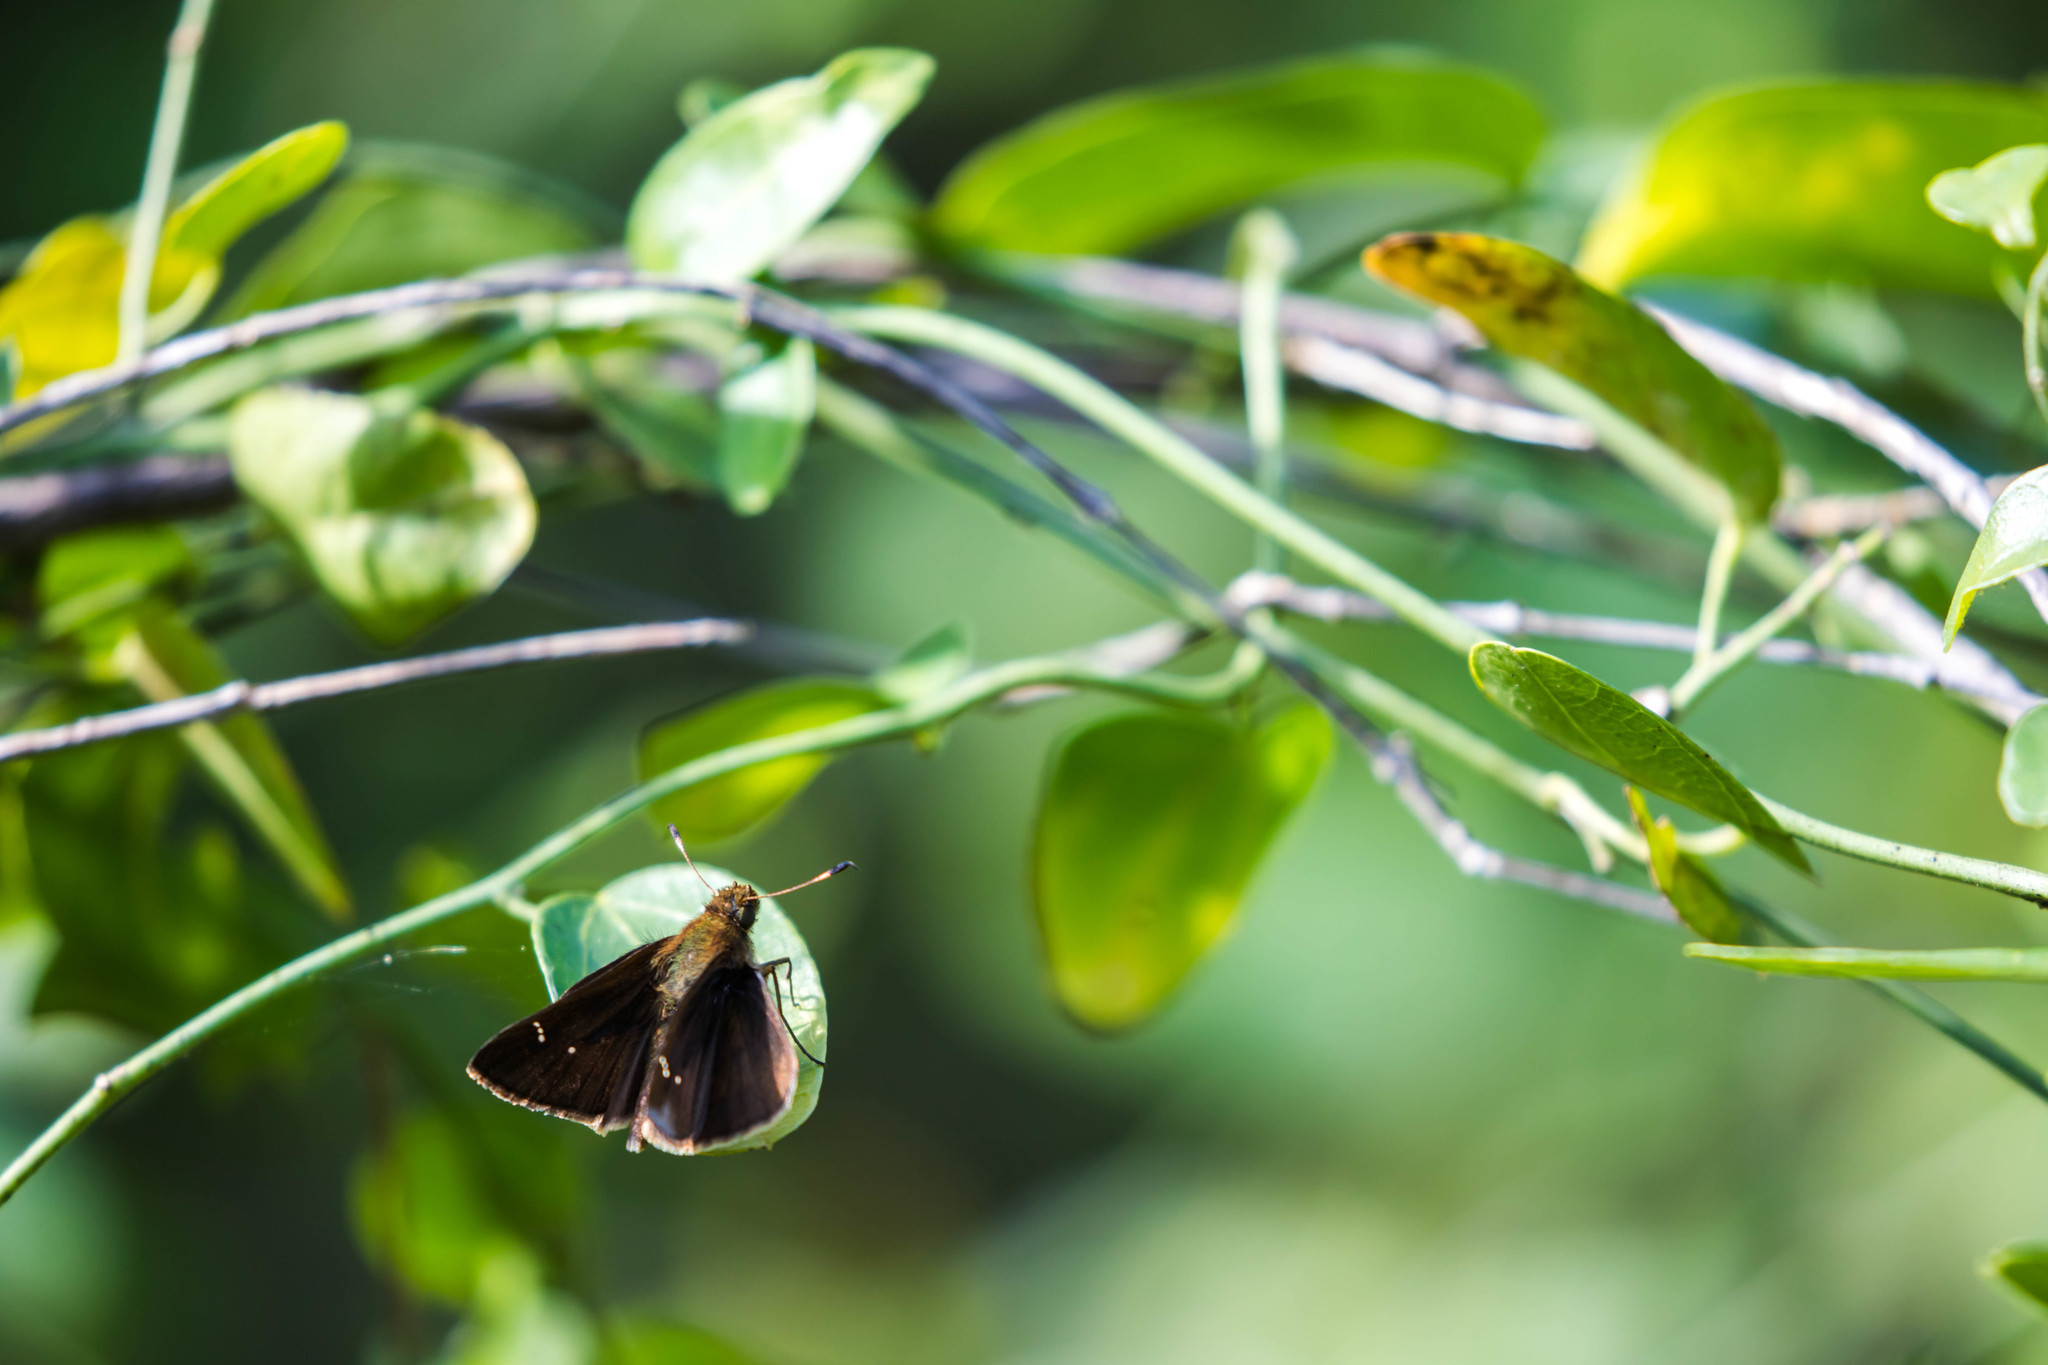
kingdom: Animalia
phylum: Arthropoda
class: Insecta
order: Lepidoptera
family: Hesperiidae
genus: Lerema
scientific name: Lerema accius
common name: Clouded skipper
